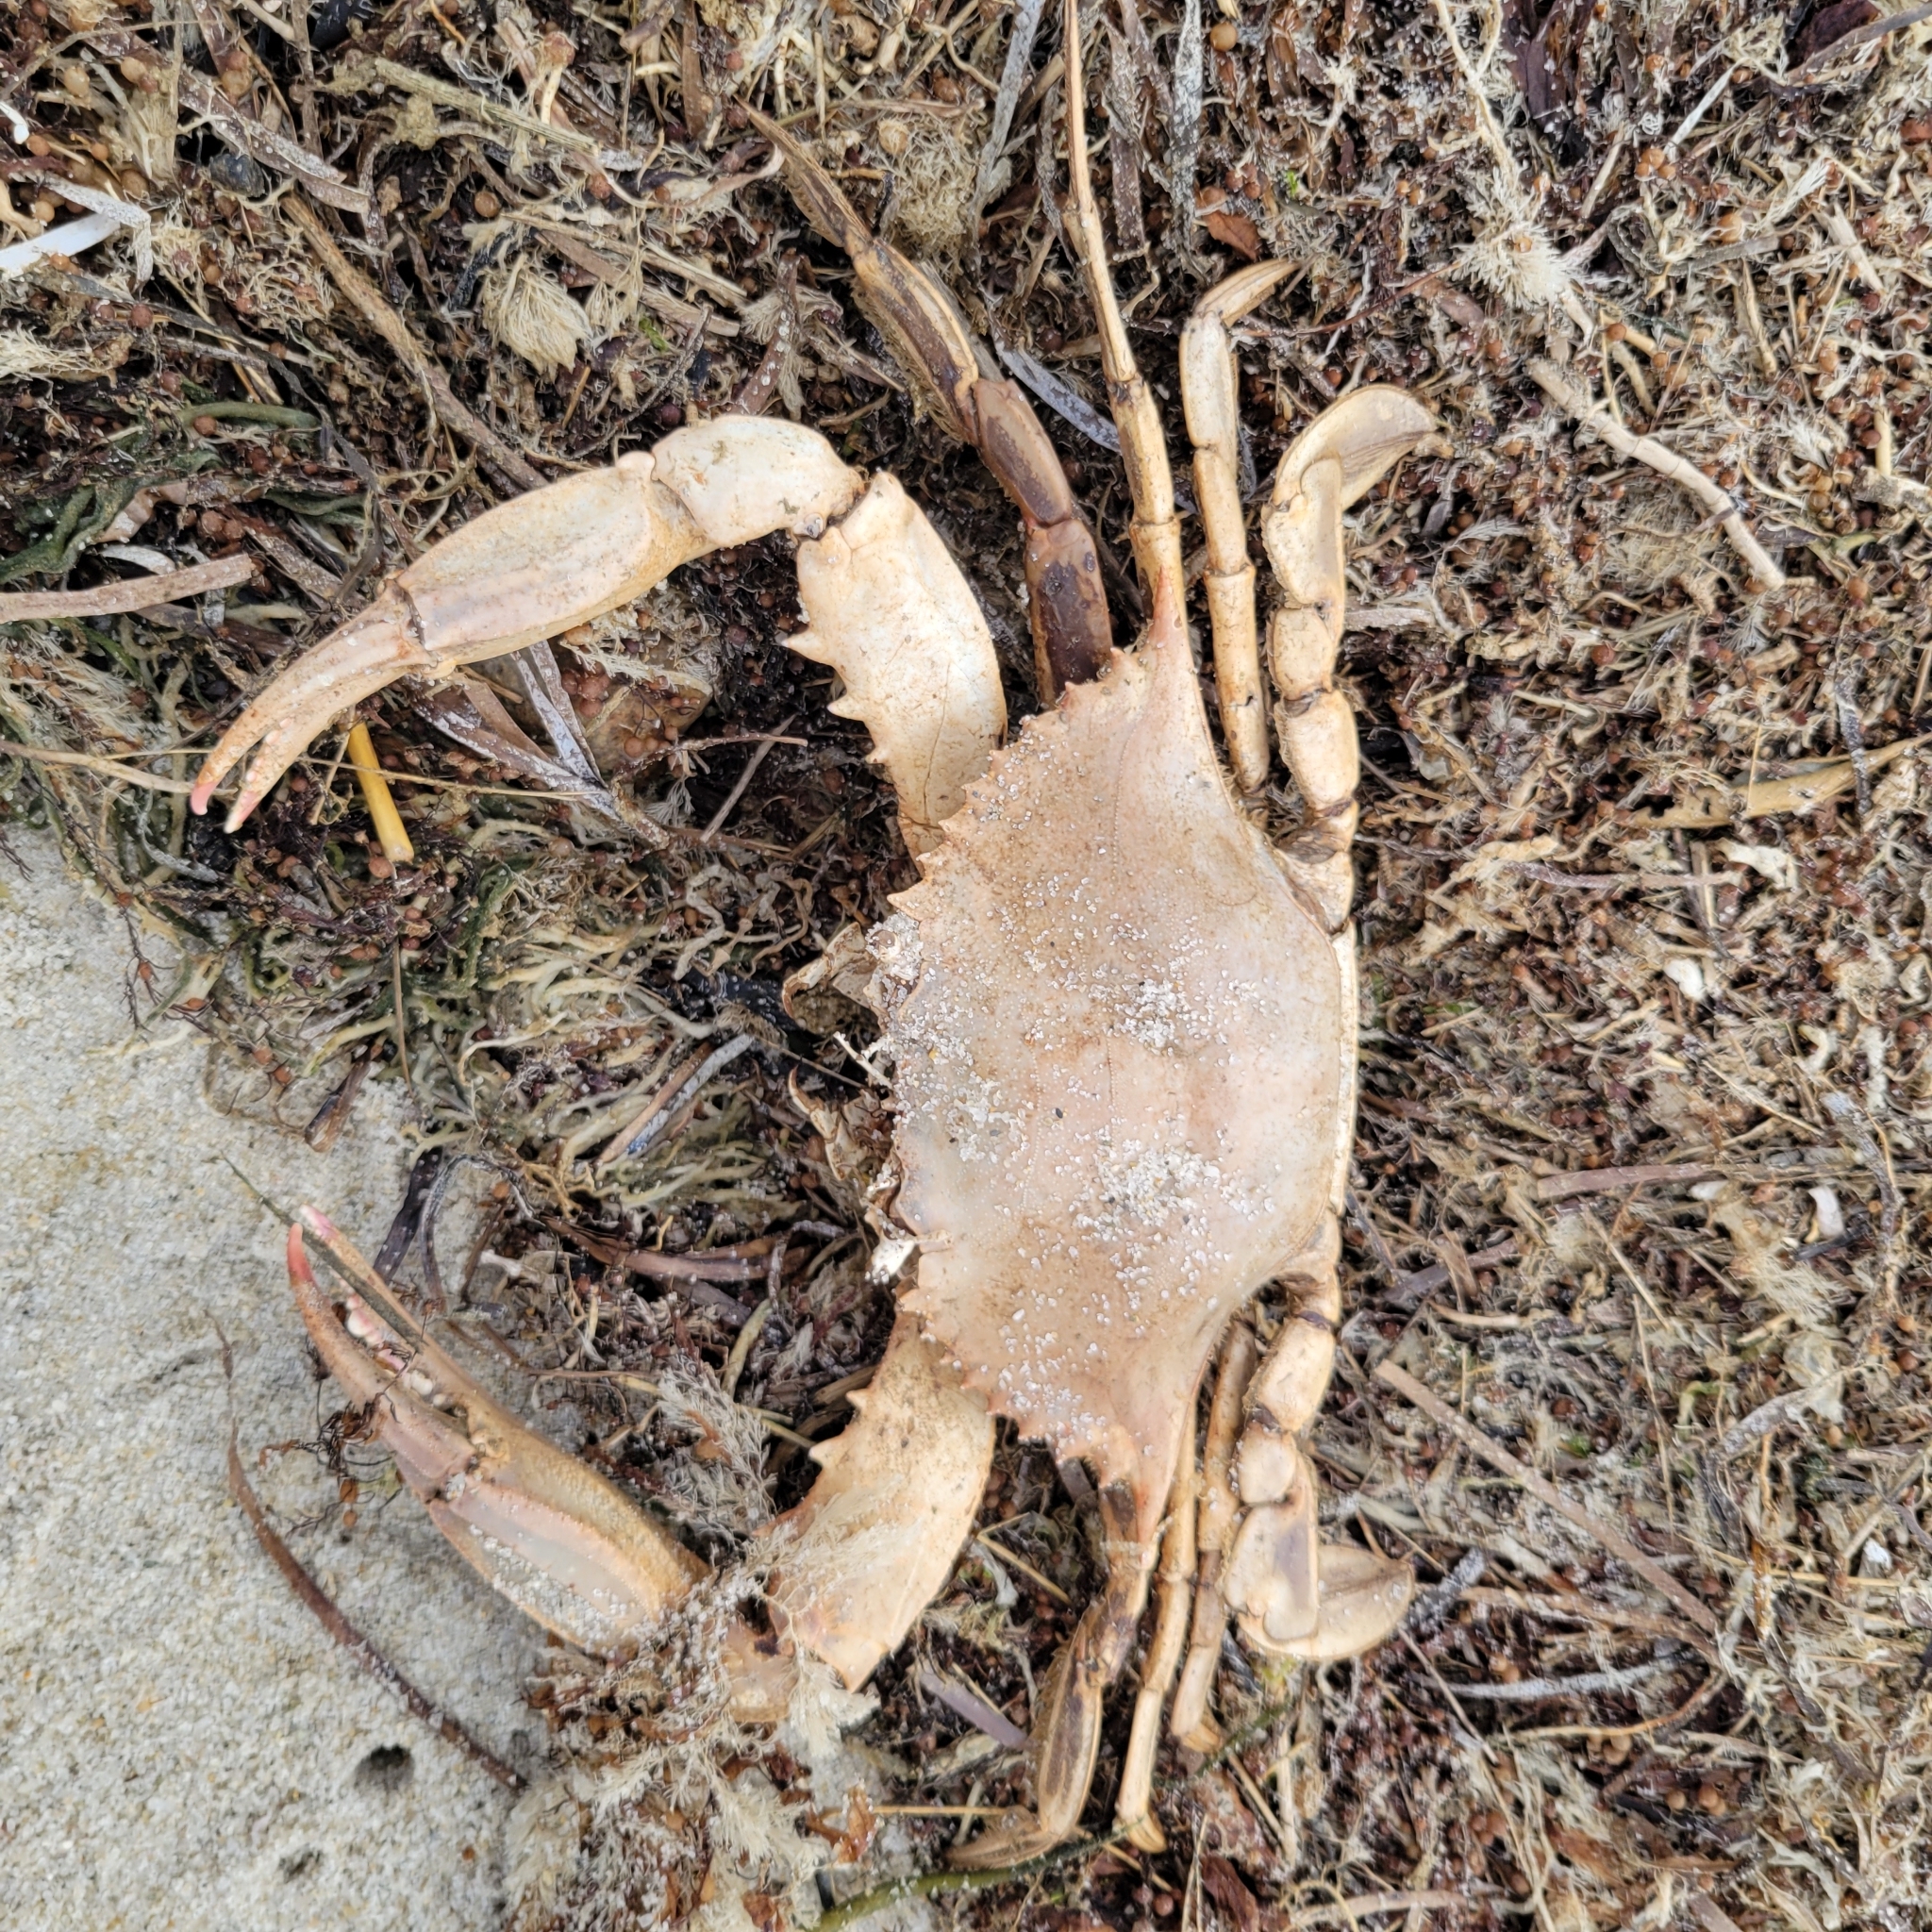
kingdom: Animalia
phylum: Arthropoda
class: Malacostraca
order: Decapoda
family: Portunidae
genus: Callinectes
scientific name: Callinectes sapidus
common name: Blue crab
